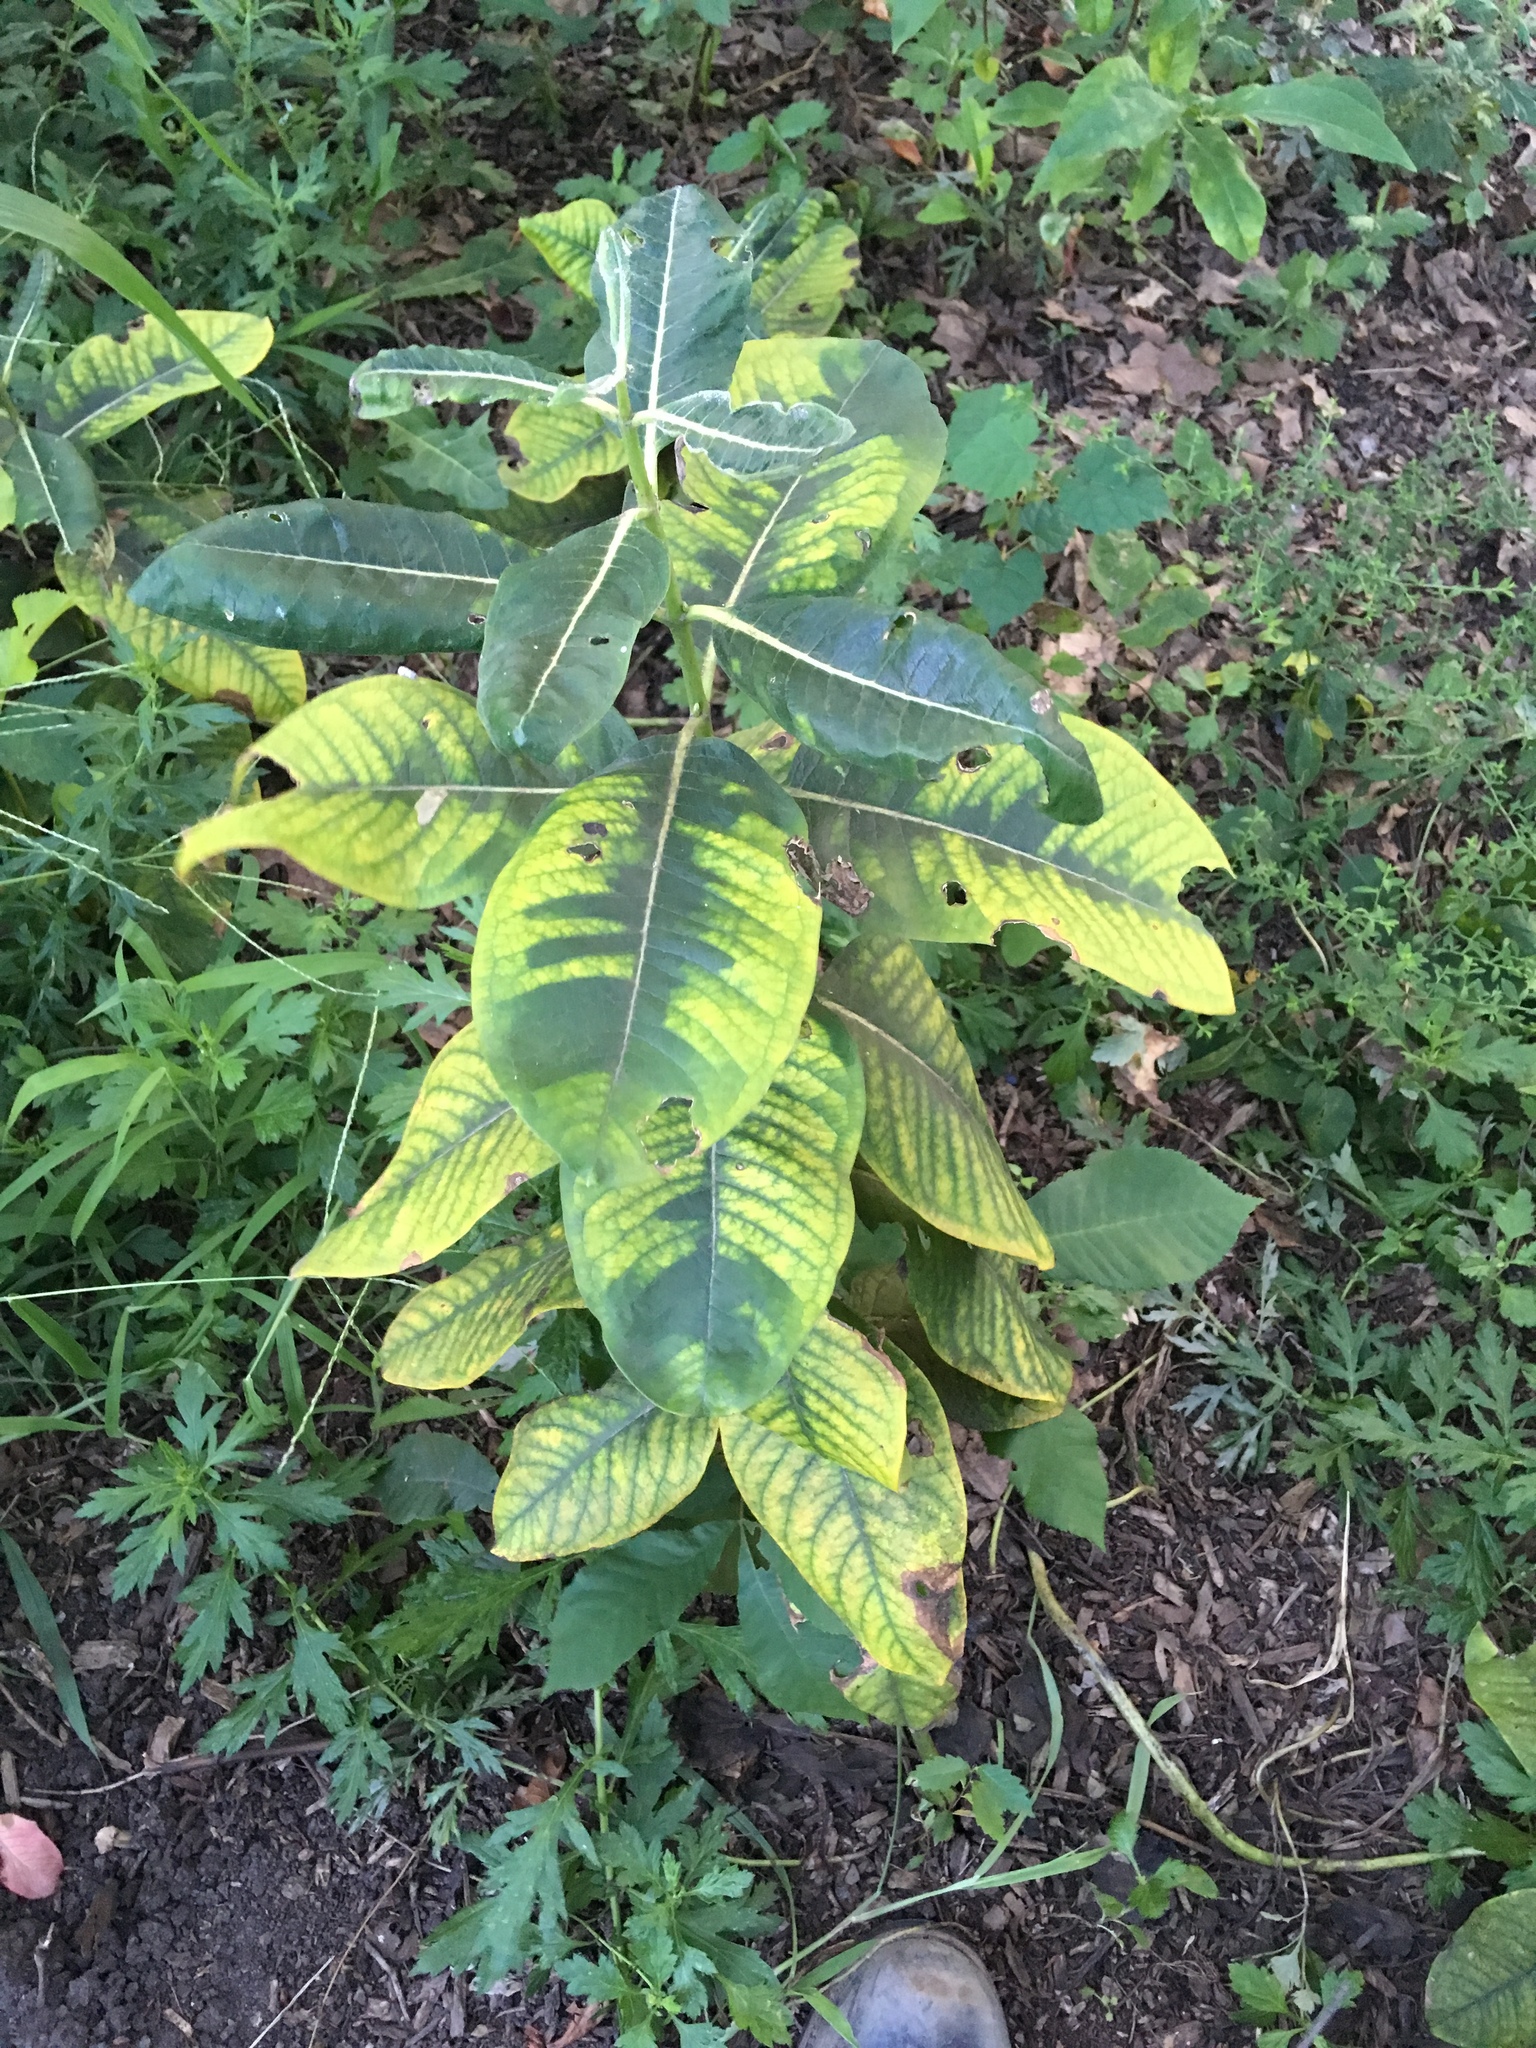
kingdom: Plantae
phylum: Tracheophyta
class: Magnoliopsida
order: Gentianales
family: Apocynaceae
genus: Asclepias
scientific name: Asclepias syriaca
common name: Common milkweed
